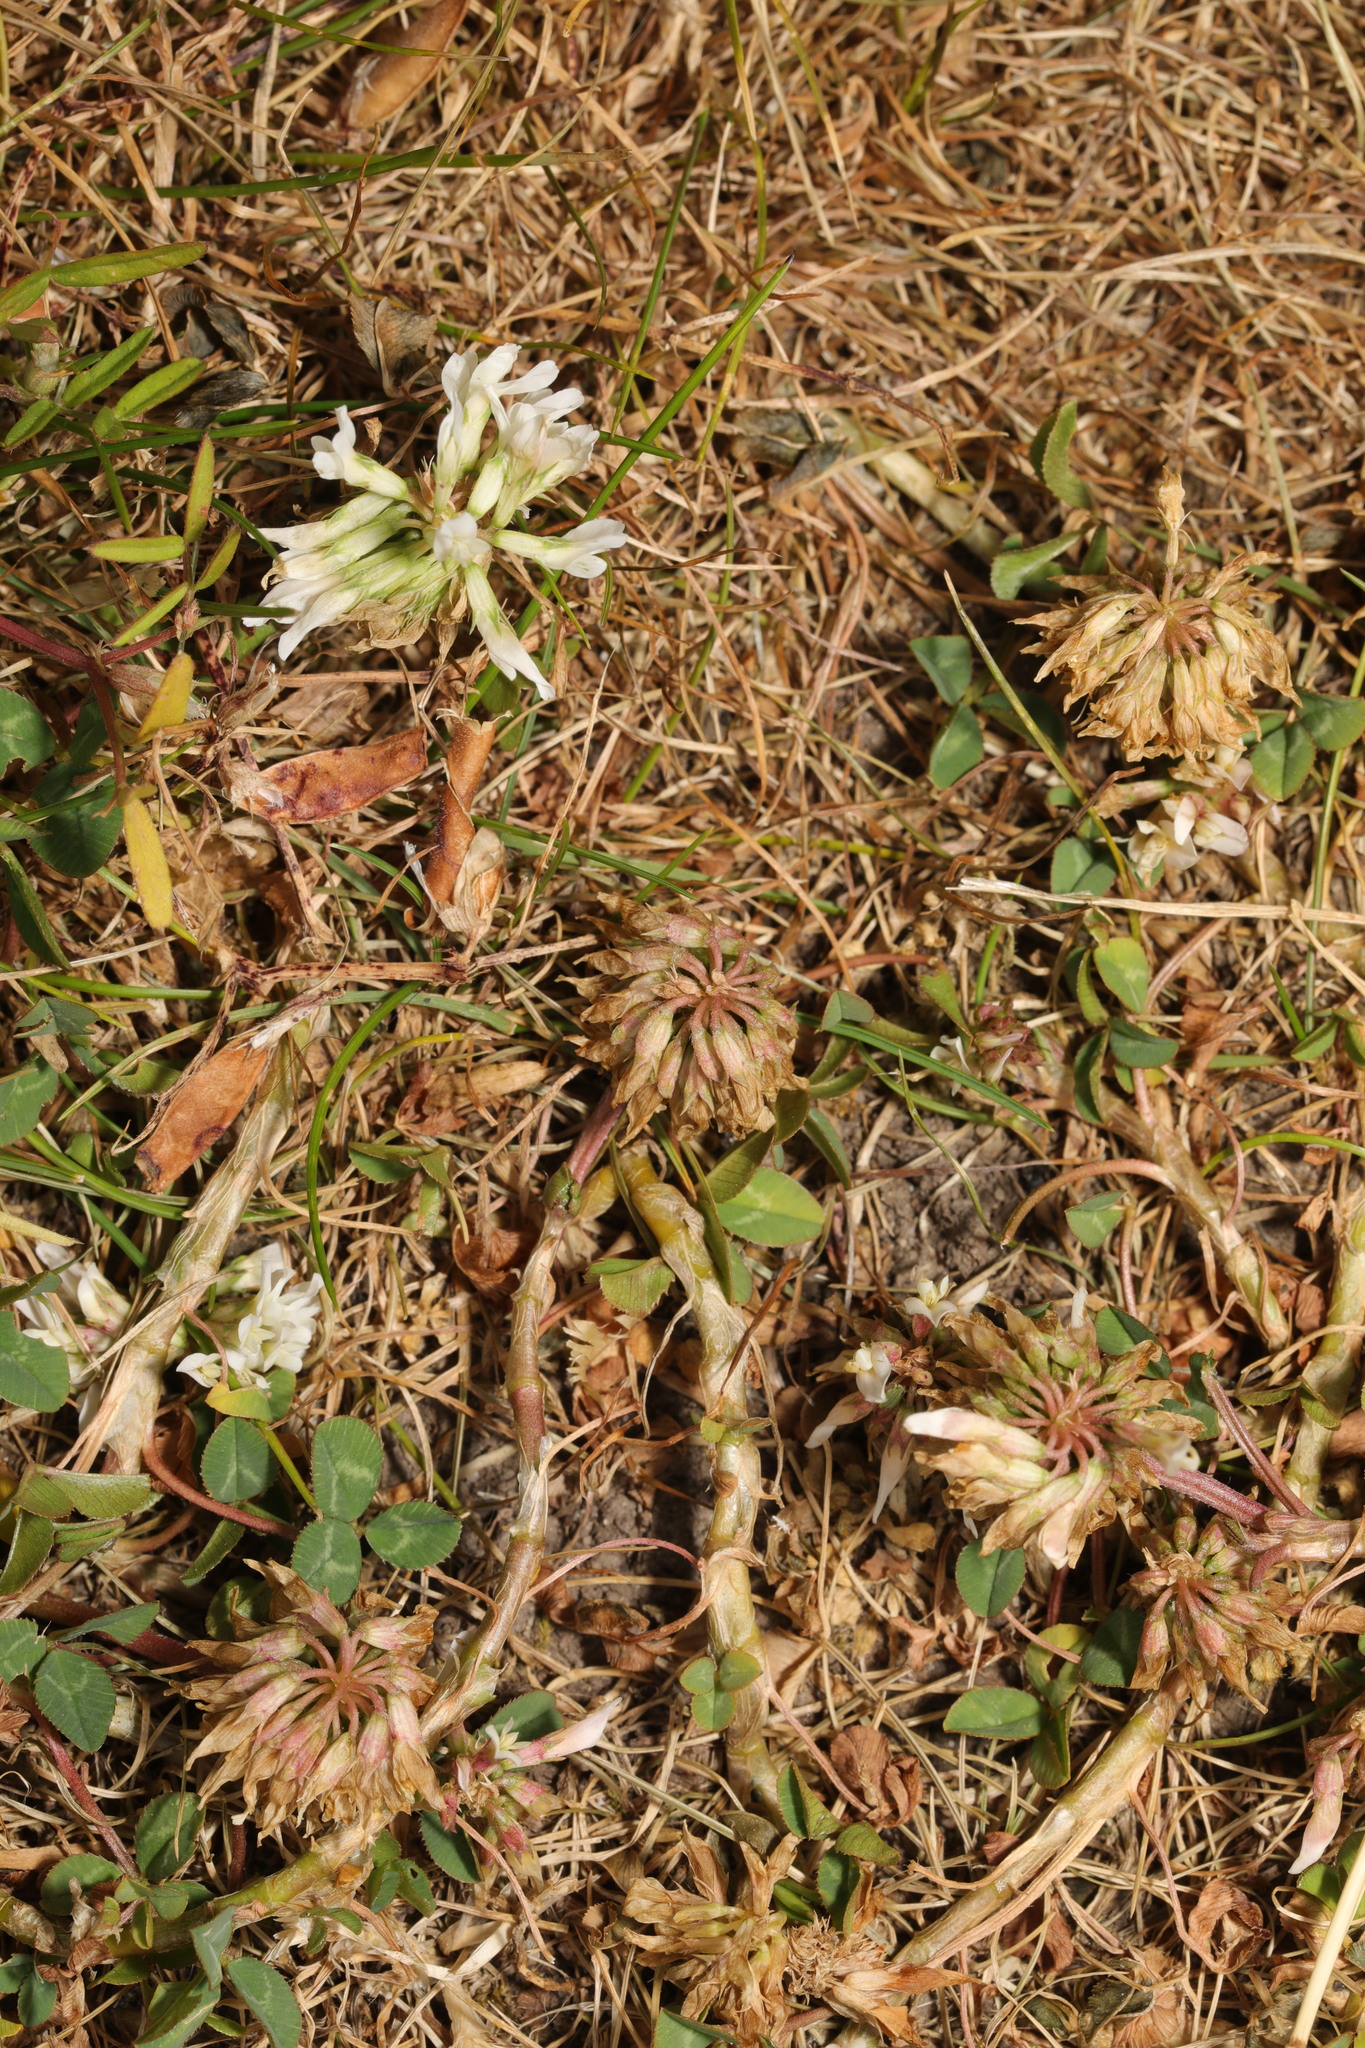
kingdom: Plantae
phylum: Tracheophyta
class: Magnoliopsida
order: Fabales
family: Fabaceae
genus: Trifolium
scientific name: Trifolium repens
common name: White clover
